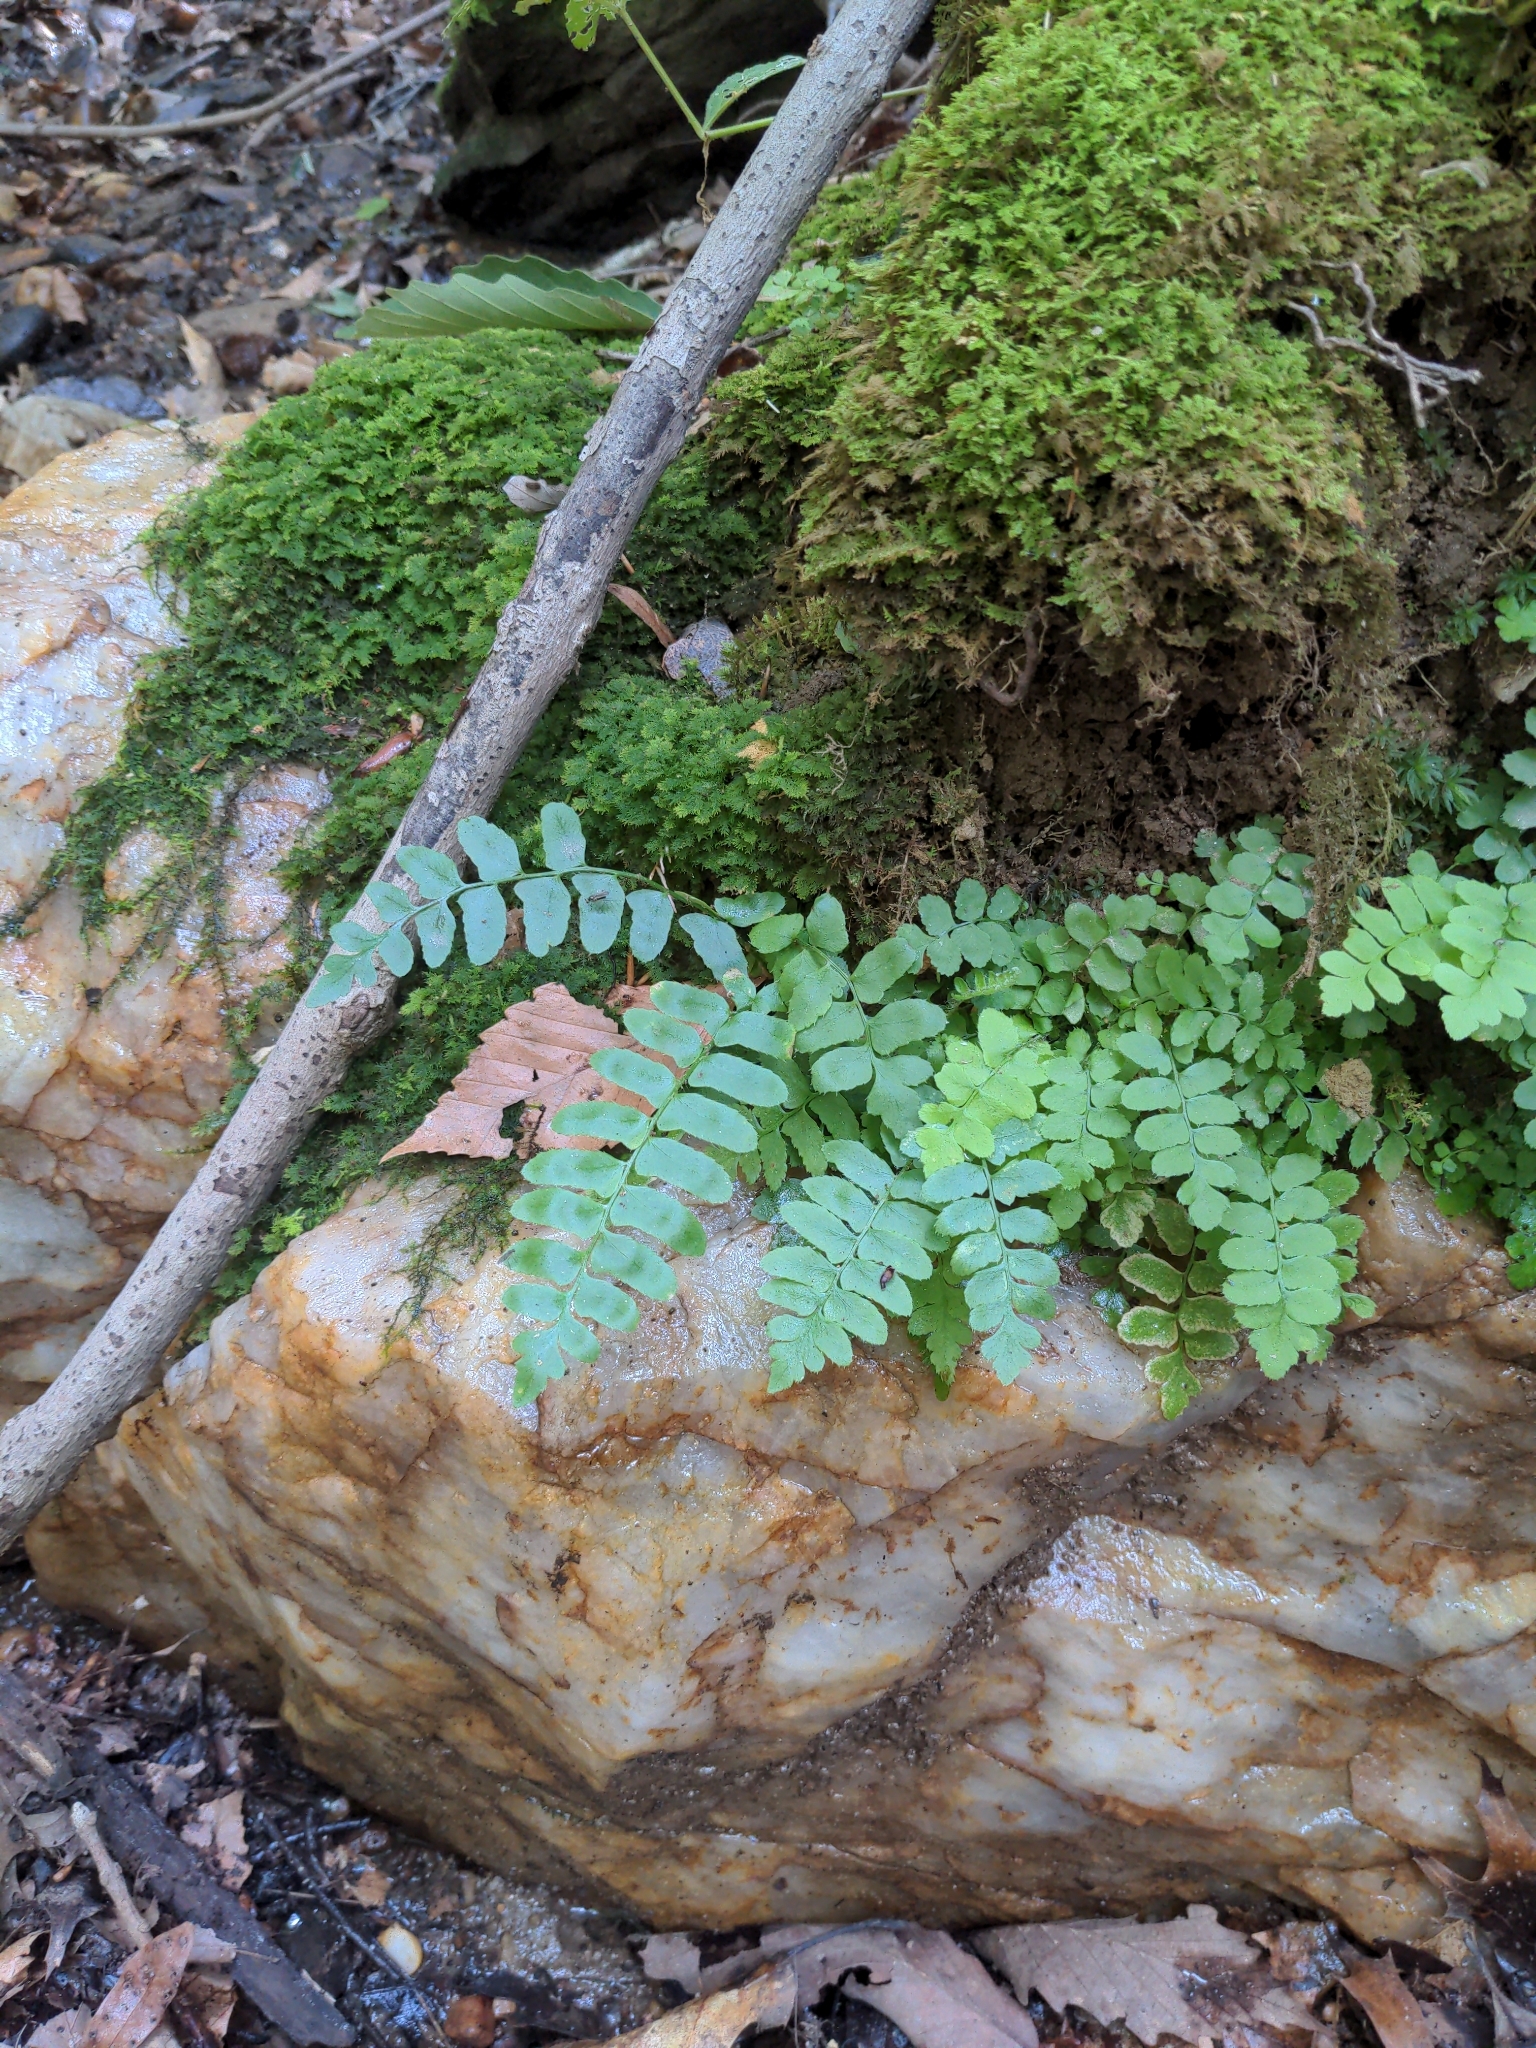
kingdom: Plantae
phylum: Tracheophyta
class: Polypodiopsida
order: Polypodiales
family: Dryopteridaceae
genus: Polystichum
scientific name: Polystichum acrostichoides
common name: Christmas fern
